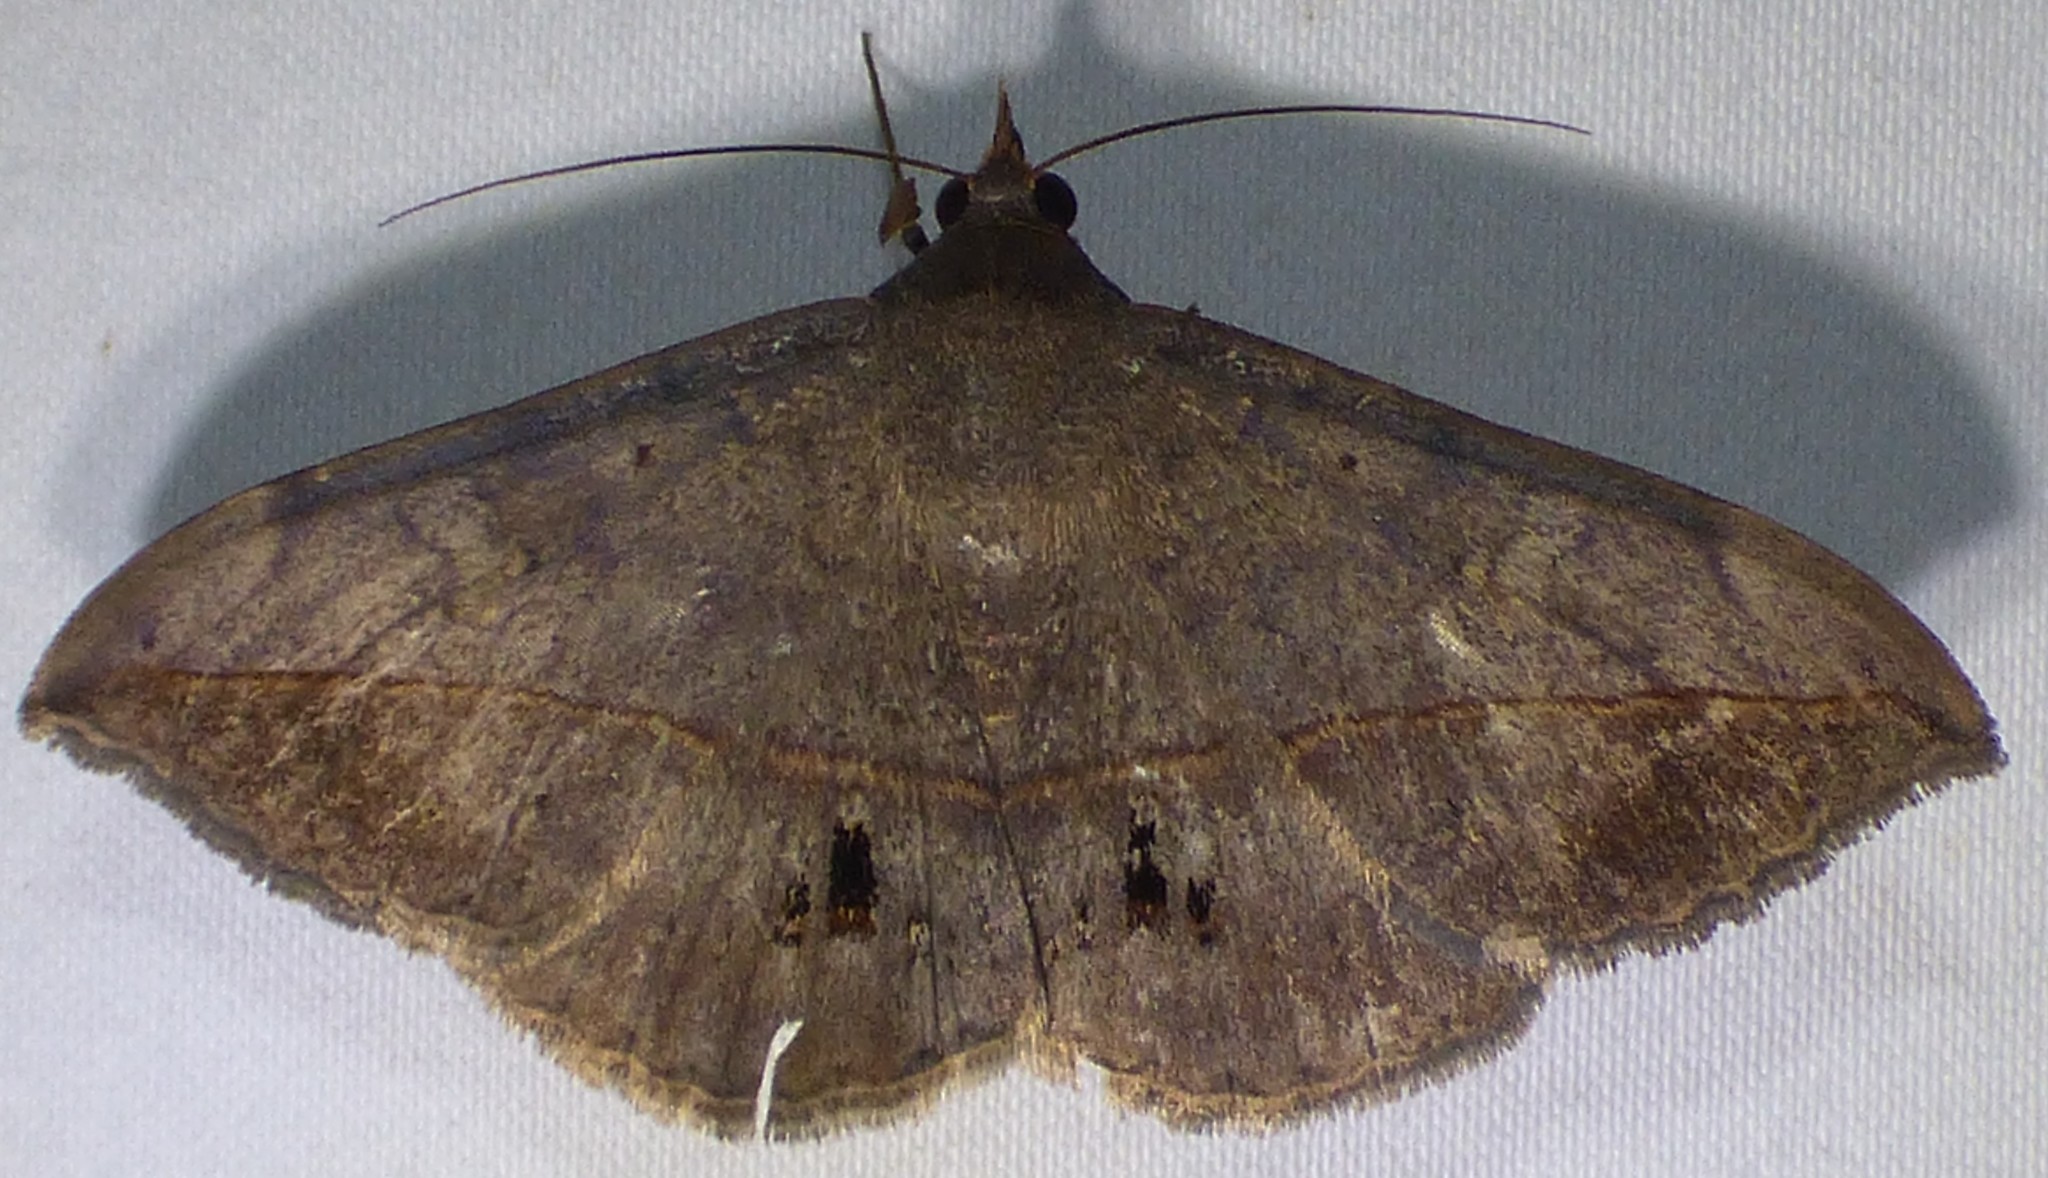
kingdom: Animalia
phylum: Arthropoda
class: Insecta
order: Lepidoptera
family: Erebidae
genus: Anticarsia
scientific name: Anticarsia gemmatalis
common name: Cutworm moth
